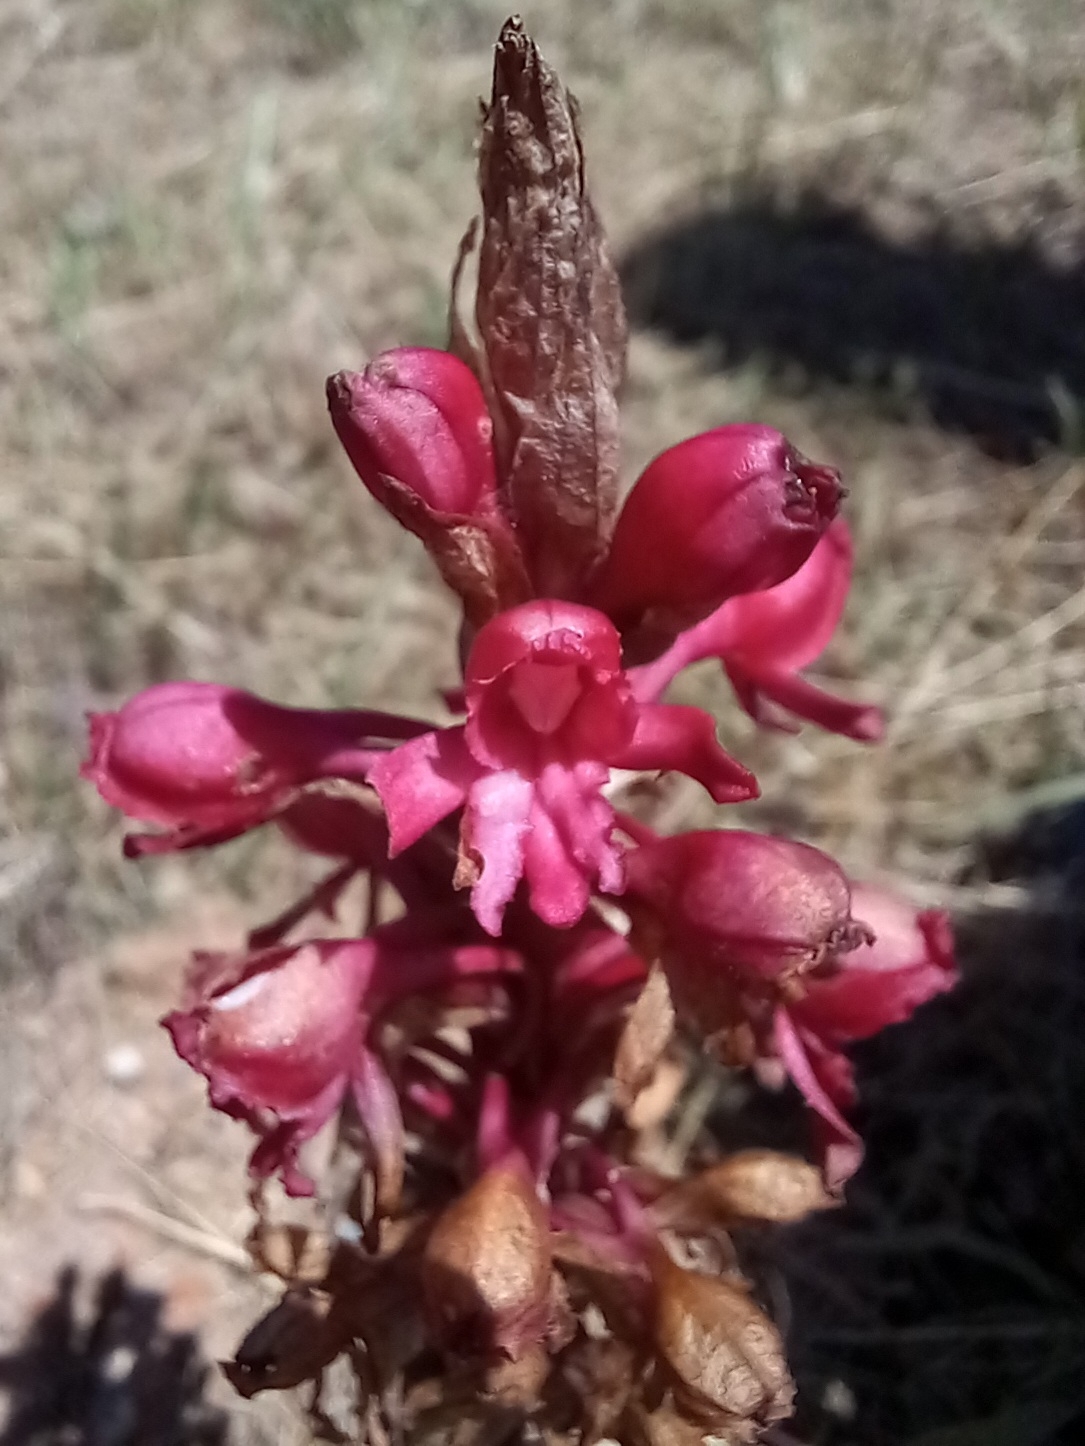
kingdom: Plantae
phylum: Tracheophyta
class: Liliopsida
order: Asparagales
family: Orchidaceae
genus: Satyrium
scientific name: Satyrium princeps
